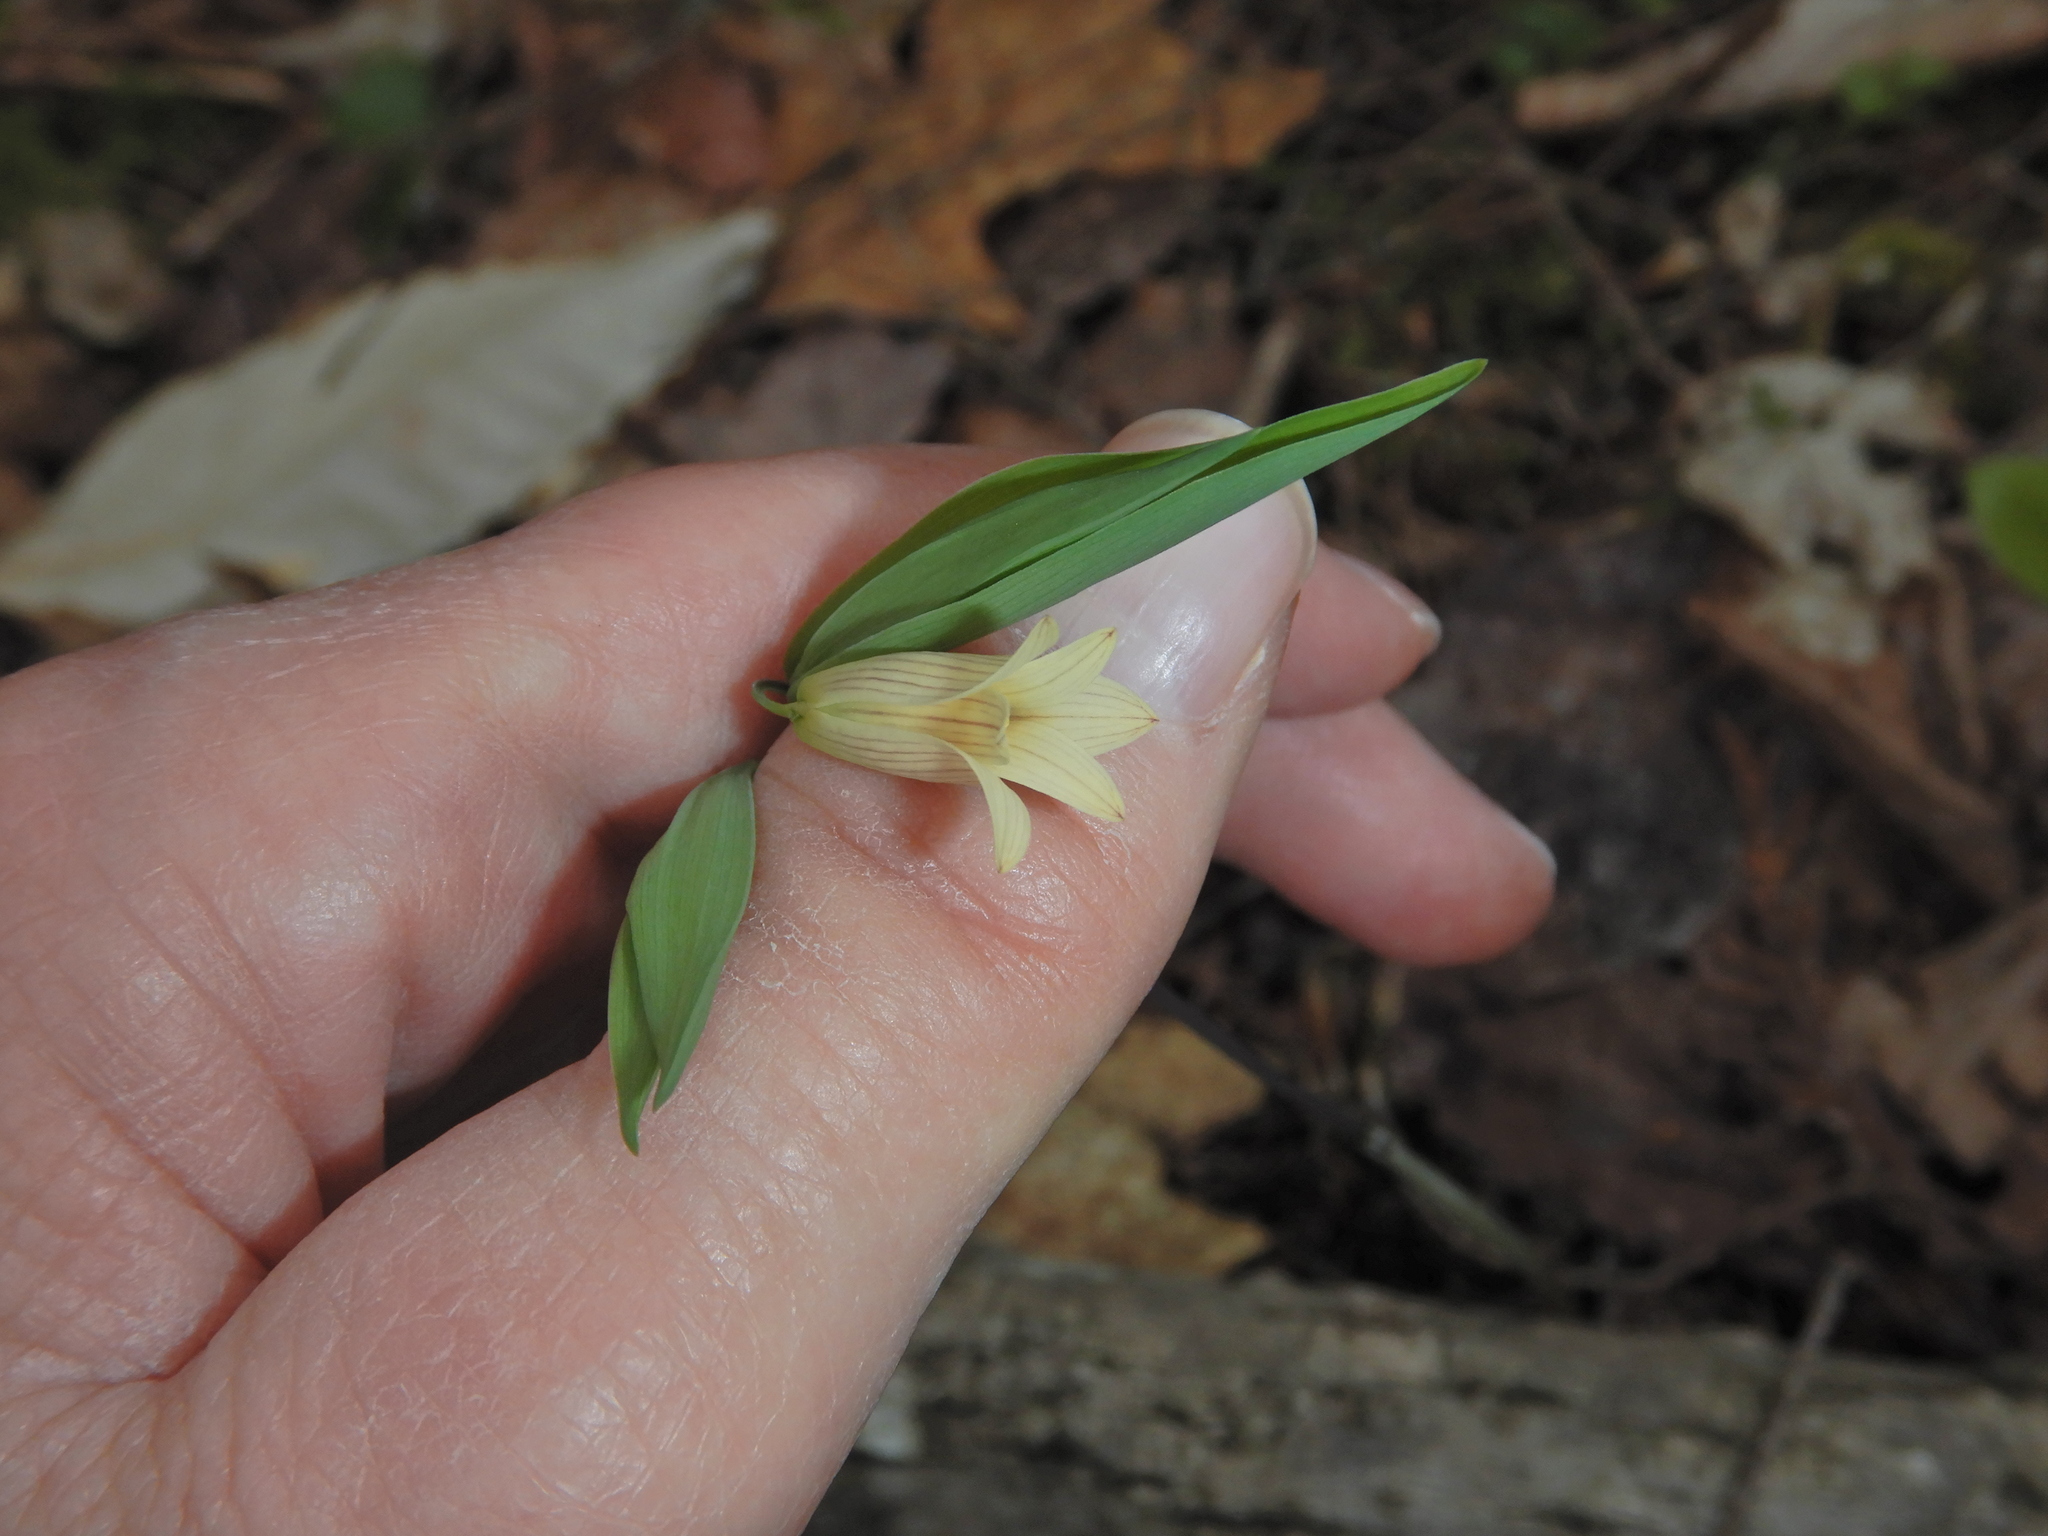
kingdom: Plantae
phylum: Tracheophyta
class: Liliopsida
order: Liliales
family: Colchicaceae
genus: Uvularia
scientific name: Uvularia sessilifolia
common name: Straw-lily
